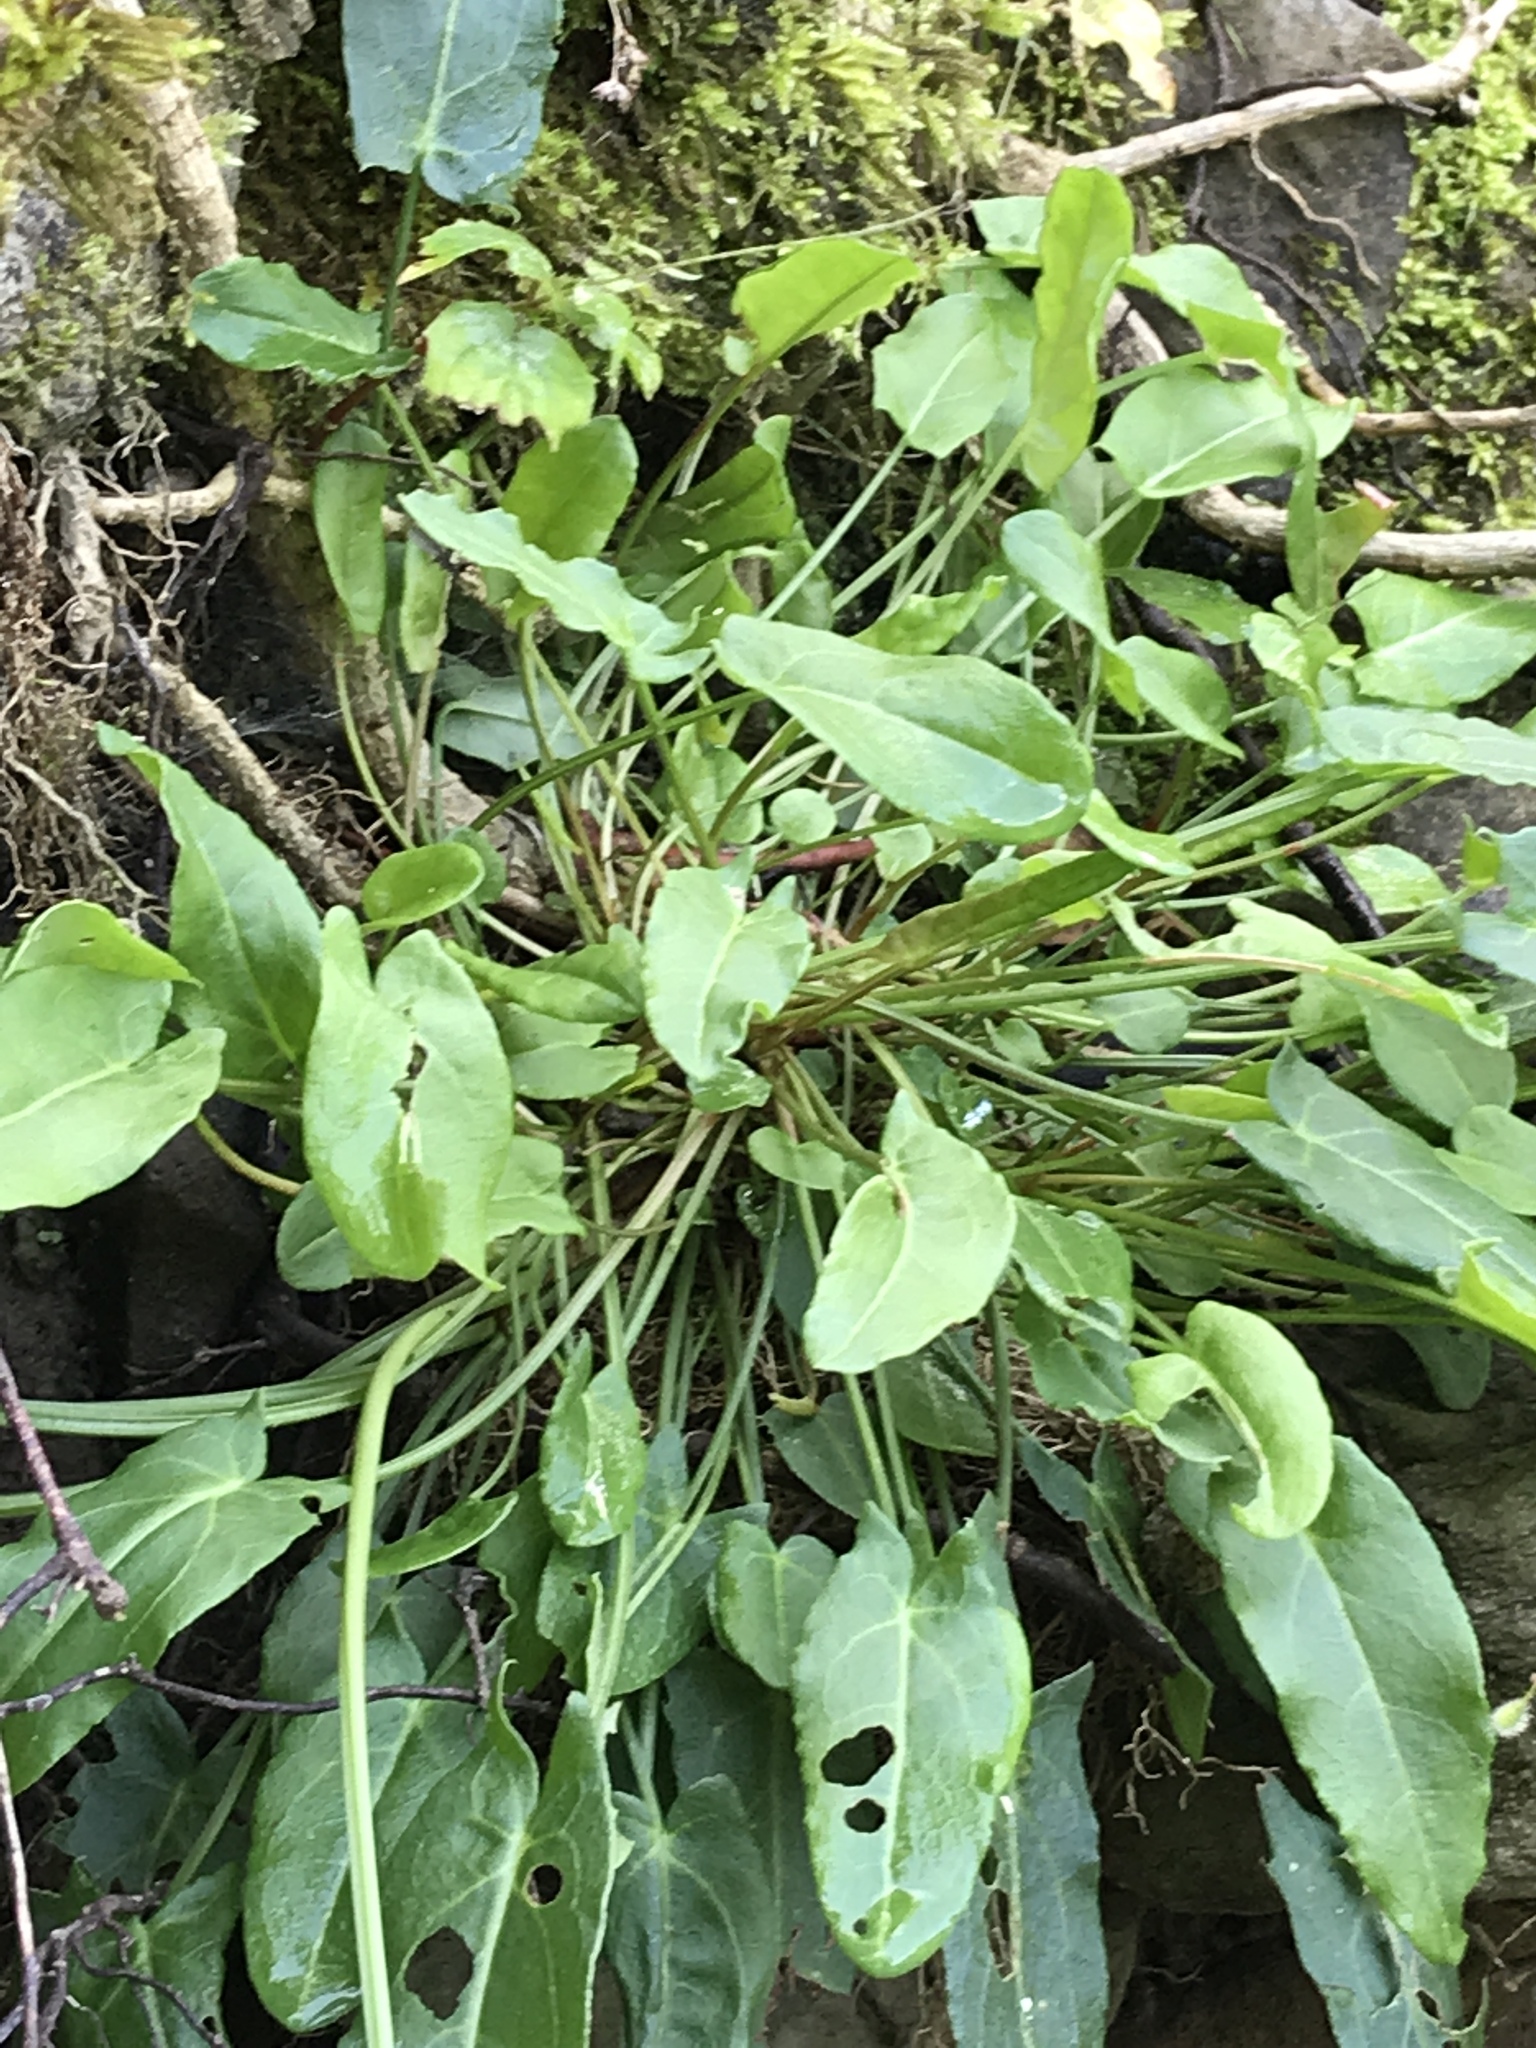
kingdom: Plantae
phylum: Tracheophyta
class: Magnoliopsida
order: Caryophyllales
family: Polygonaceae
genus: Rumex
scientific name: Rumex acetosa
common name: Garden sorrel
